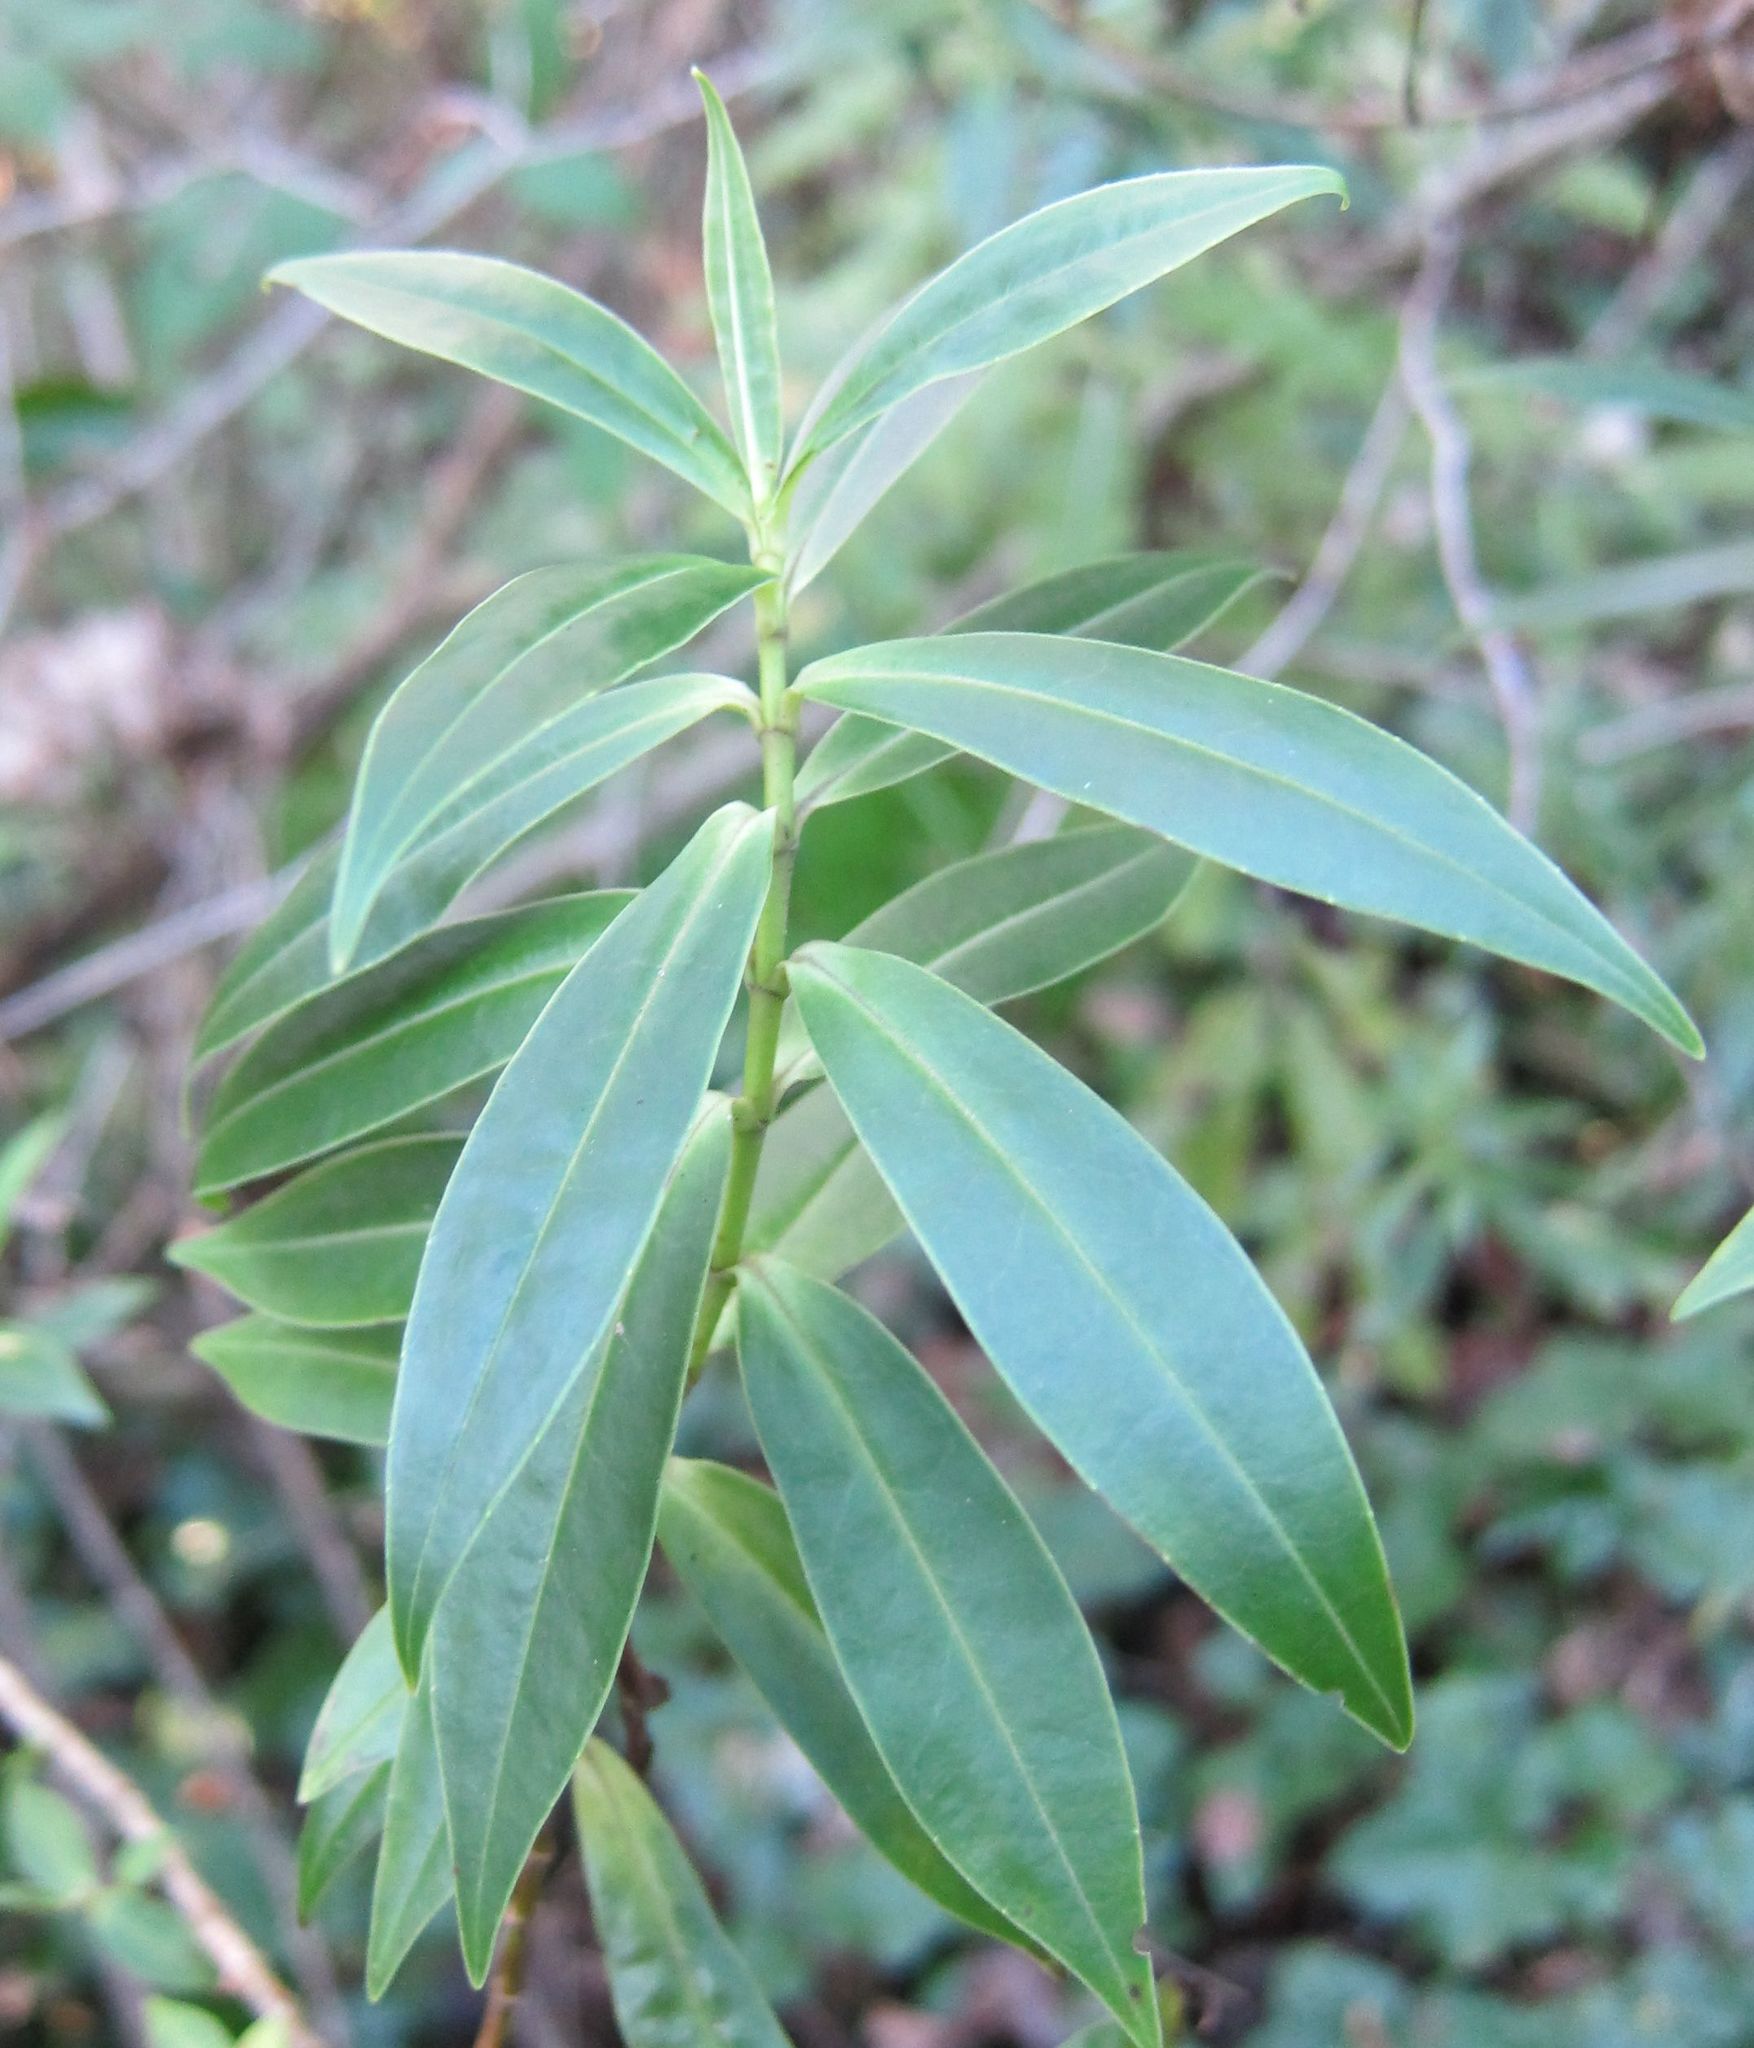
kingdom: Plantae
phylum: Tracheophyta
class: Magnoliopsida
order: Lamiales
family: Plantaginaceae
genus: Veronica
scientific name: Veronica salicifolia
